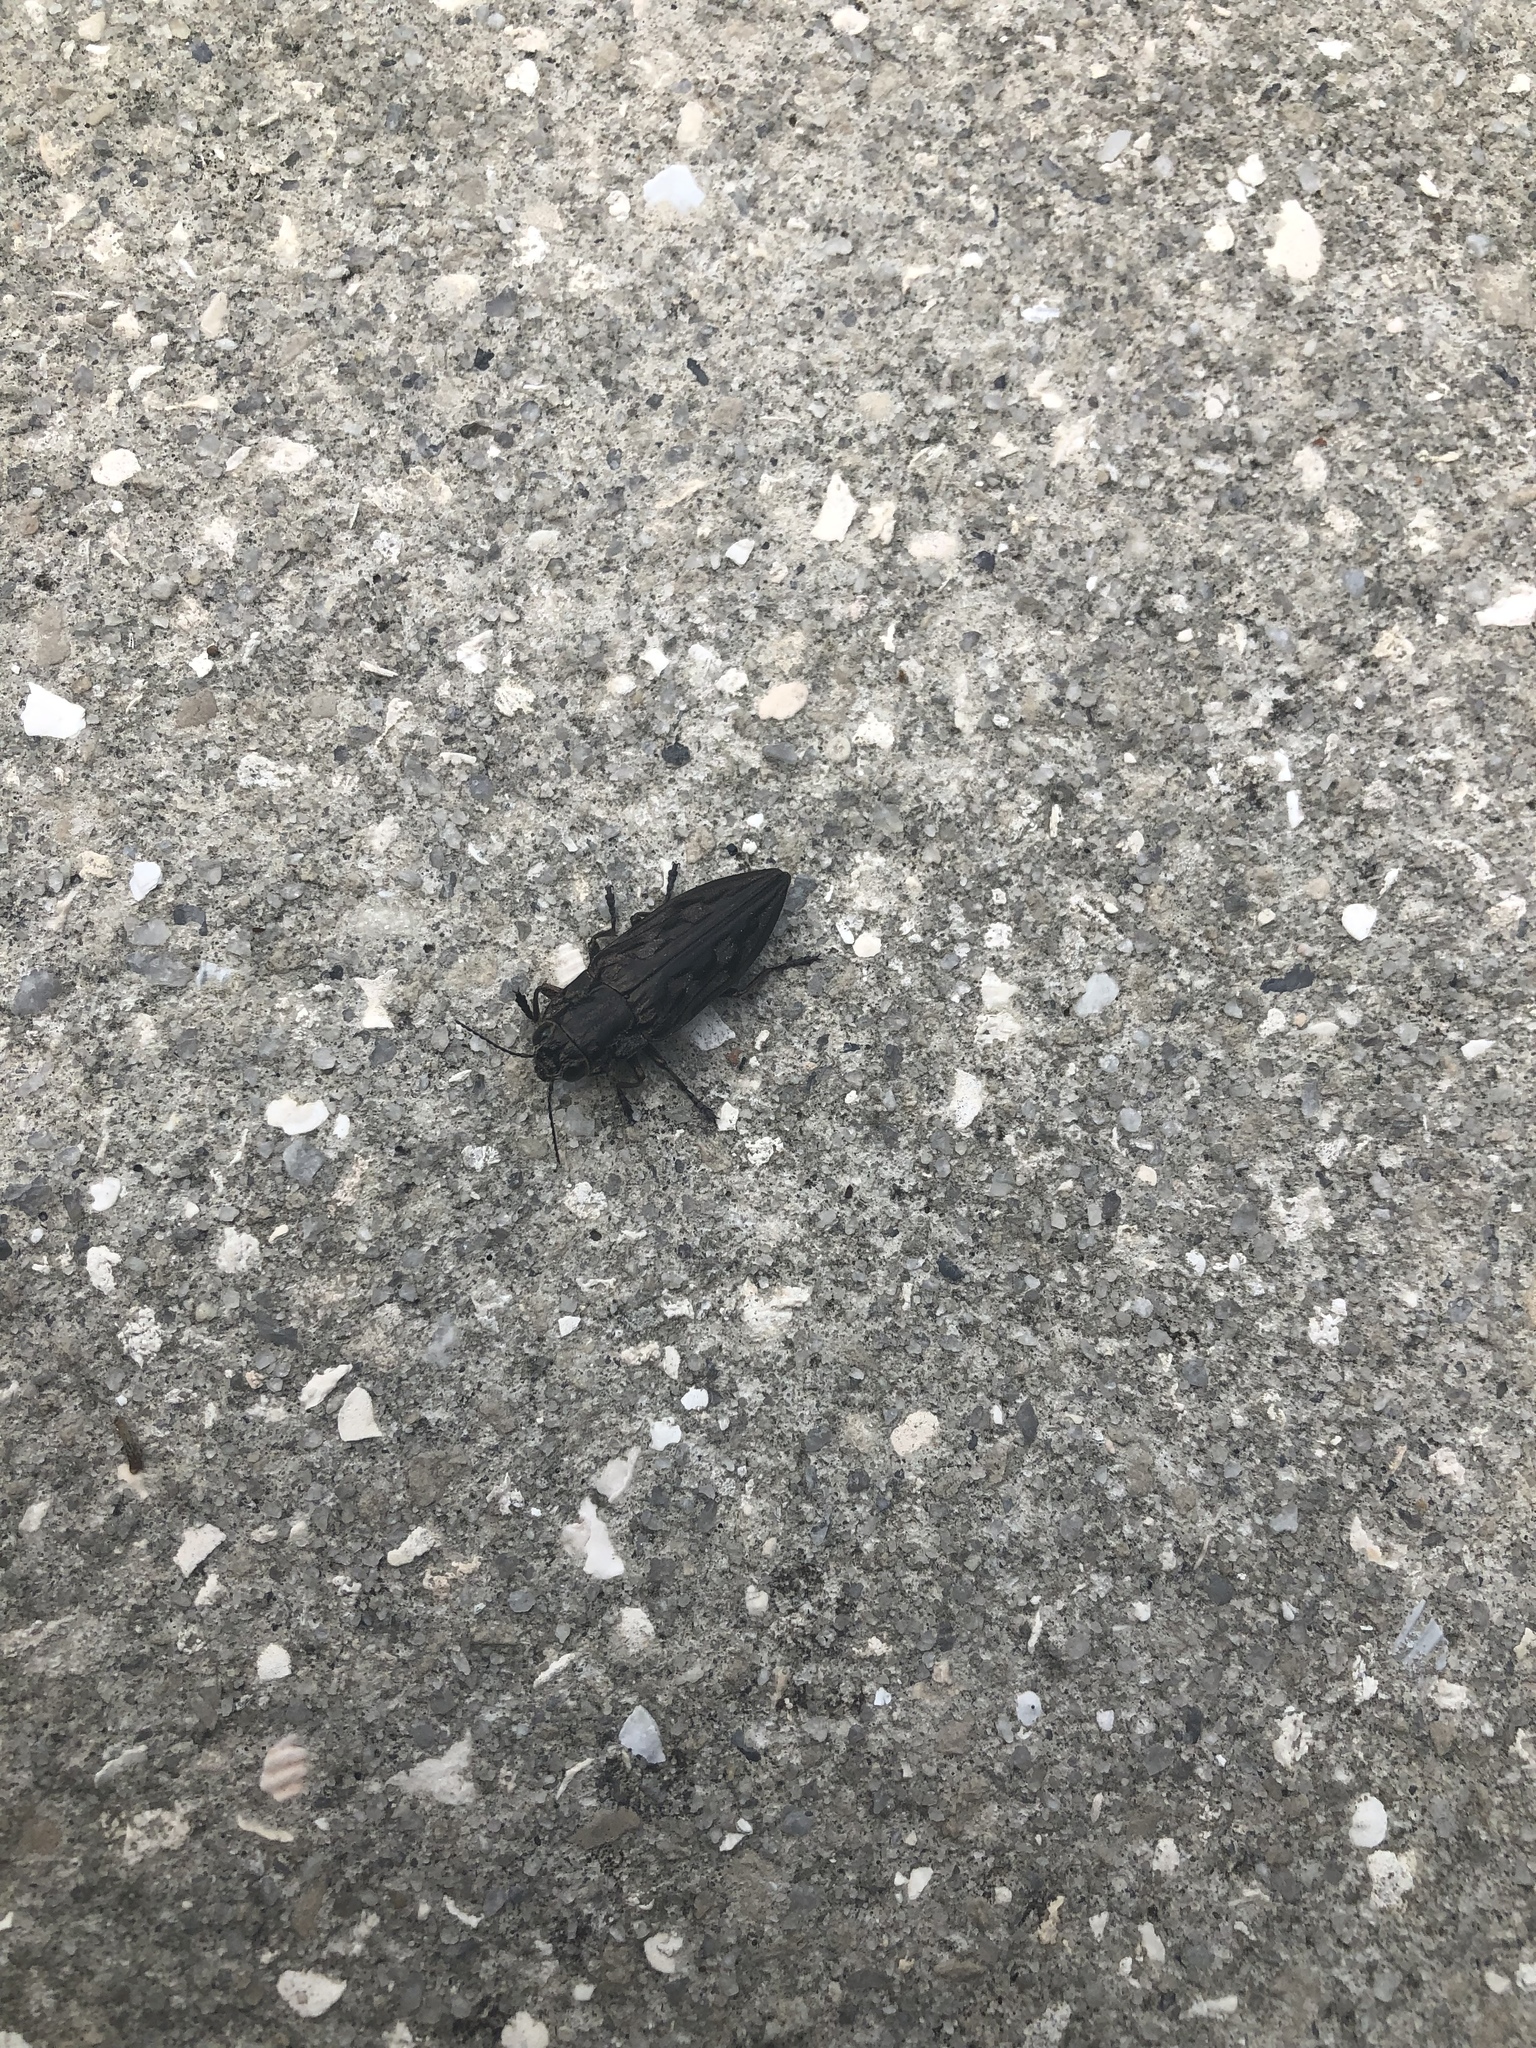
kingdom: Animalia
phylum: Arthropoda
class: Insecta
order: Coleoptera
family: Buprestidae
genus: Chalcophora
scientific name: Chalcophora virginiensis
